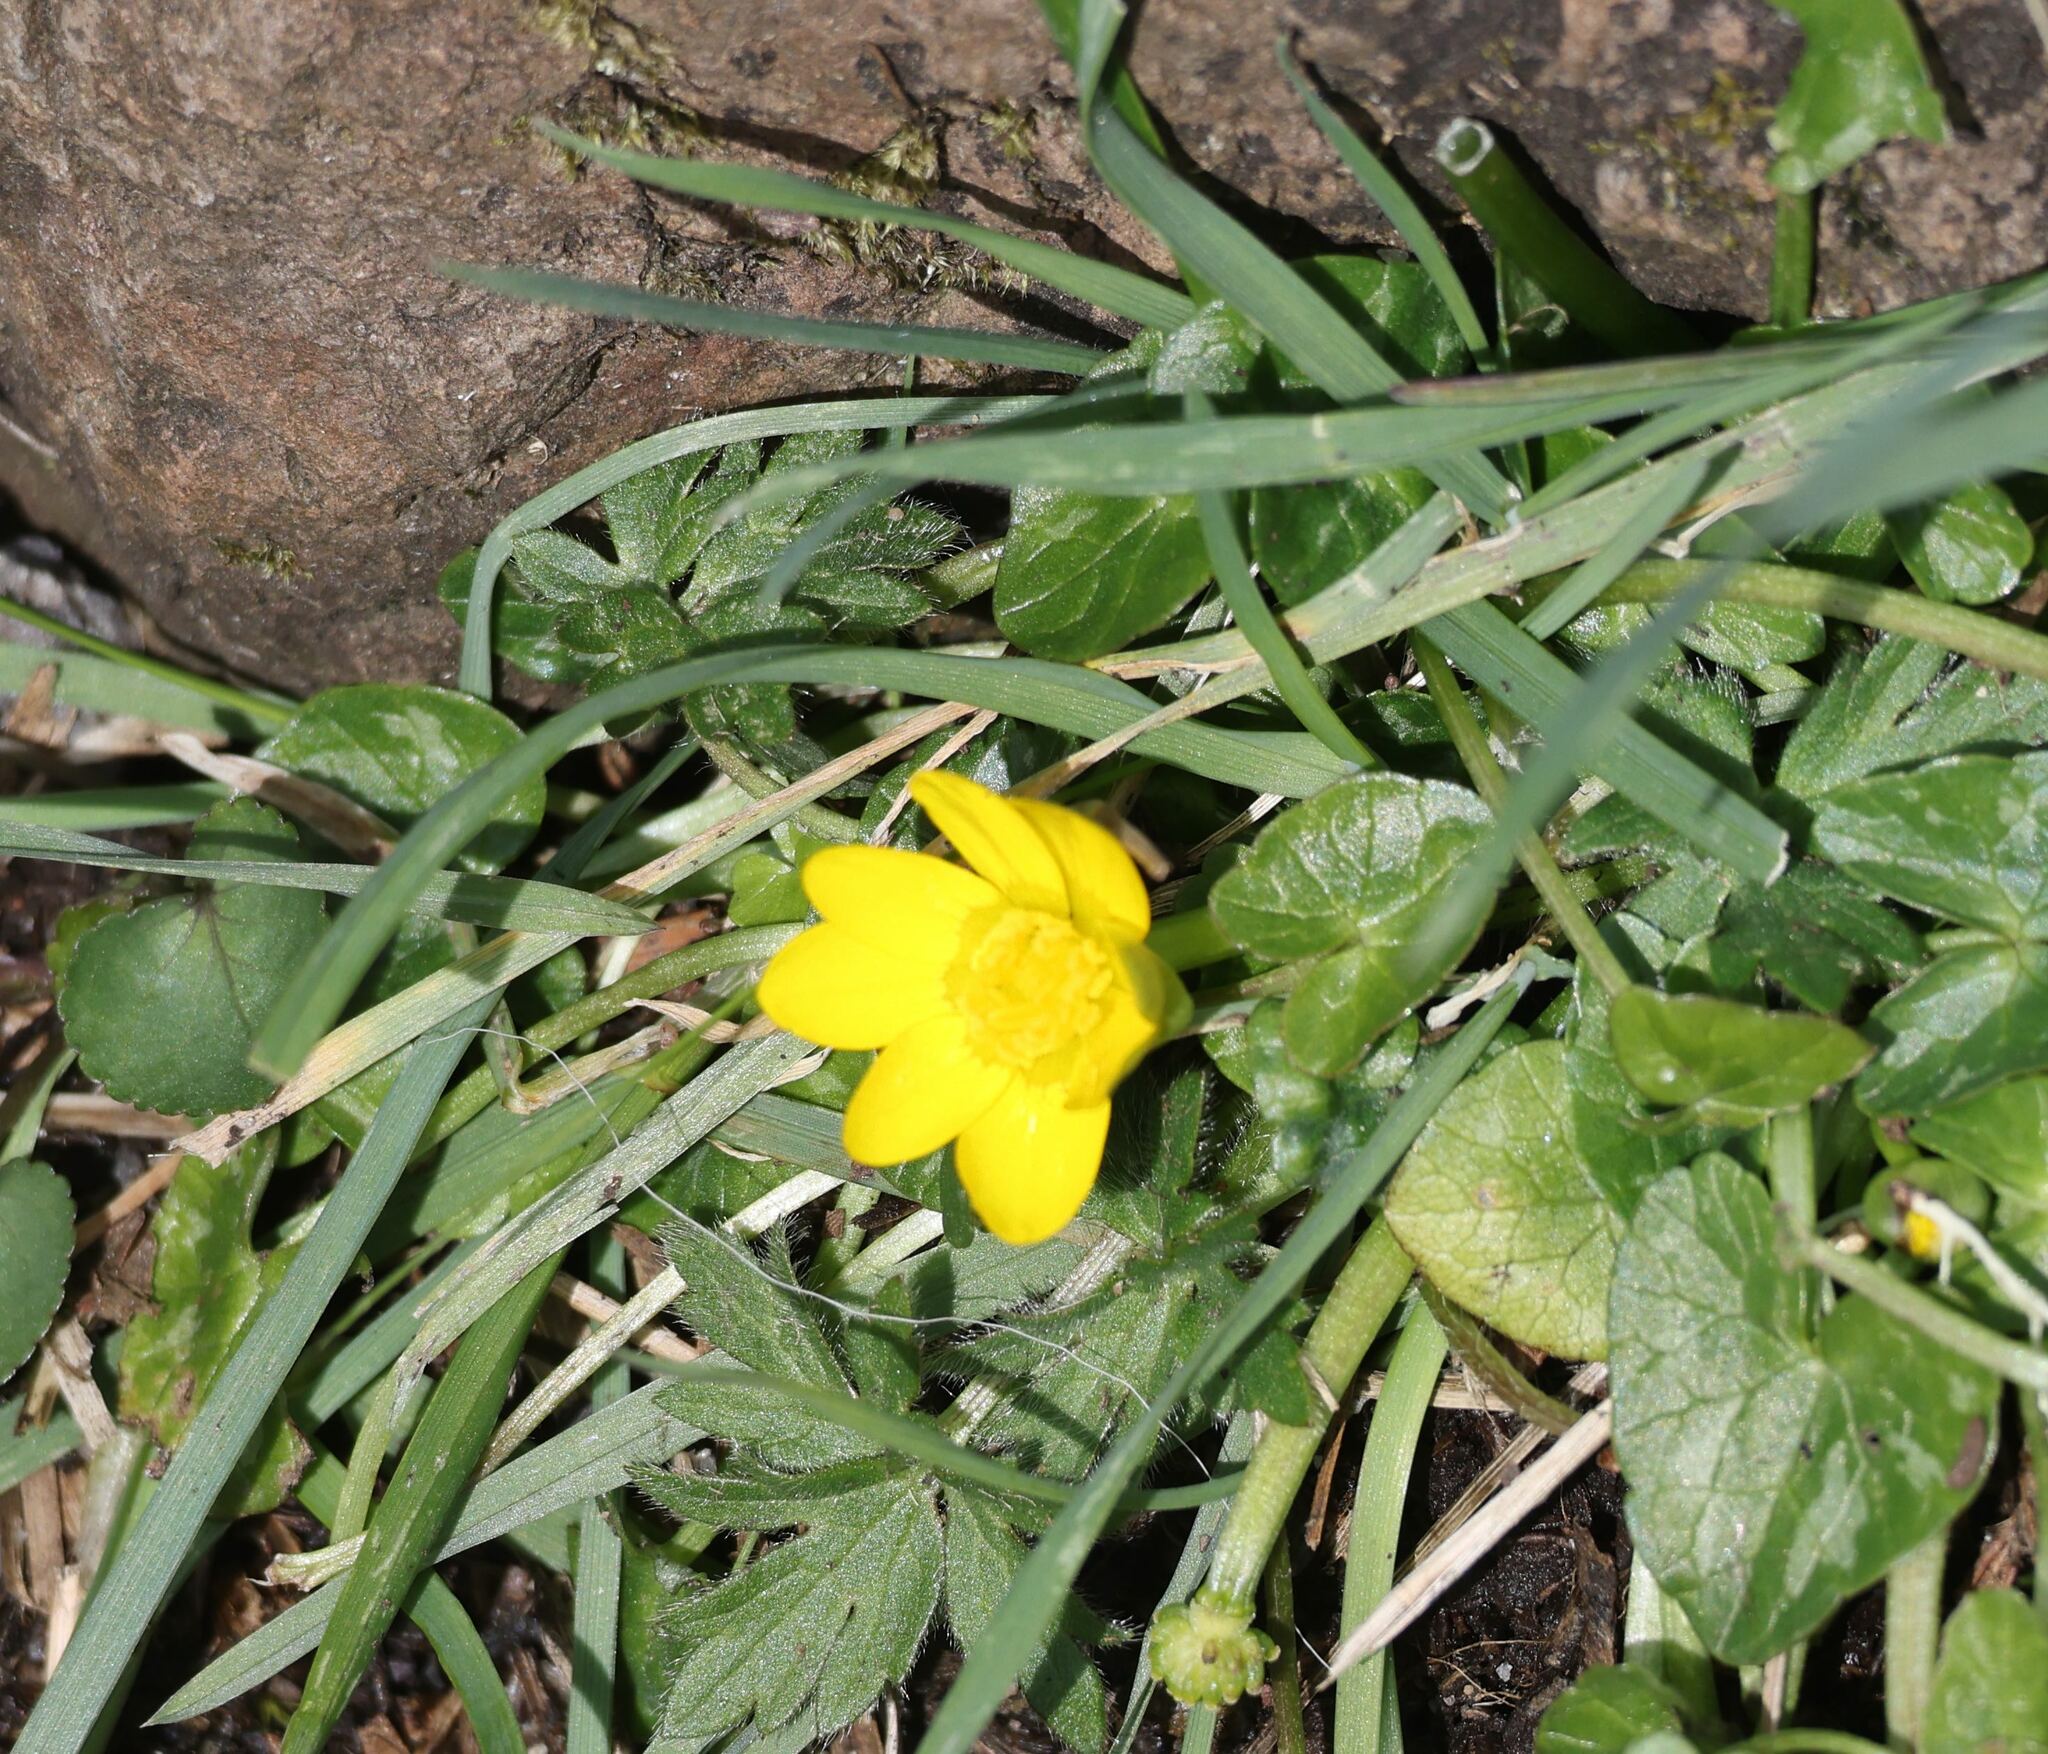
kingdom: Plantae
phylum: Tracheophyta
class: Magnoliopsida
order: Ranunculales
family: Ranunculaceae
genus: Ficaria
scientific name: Ficaria verna
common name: Lesser celandine
